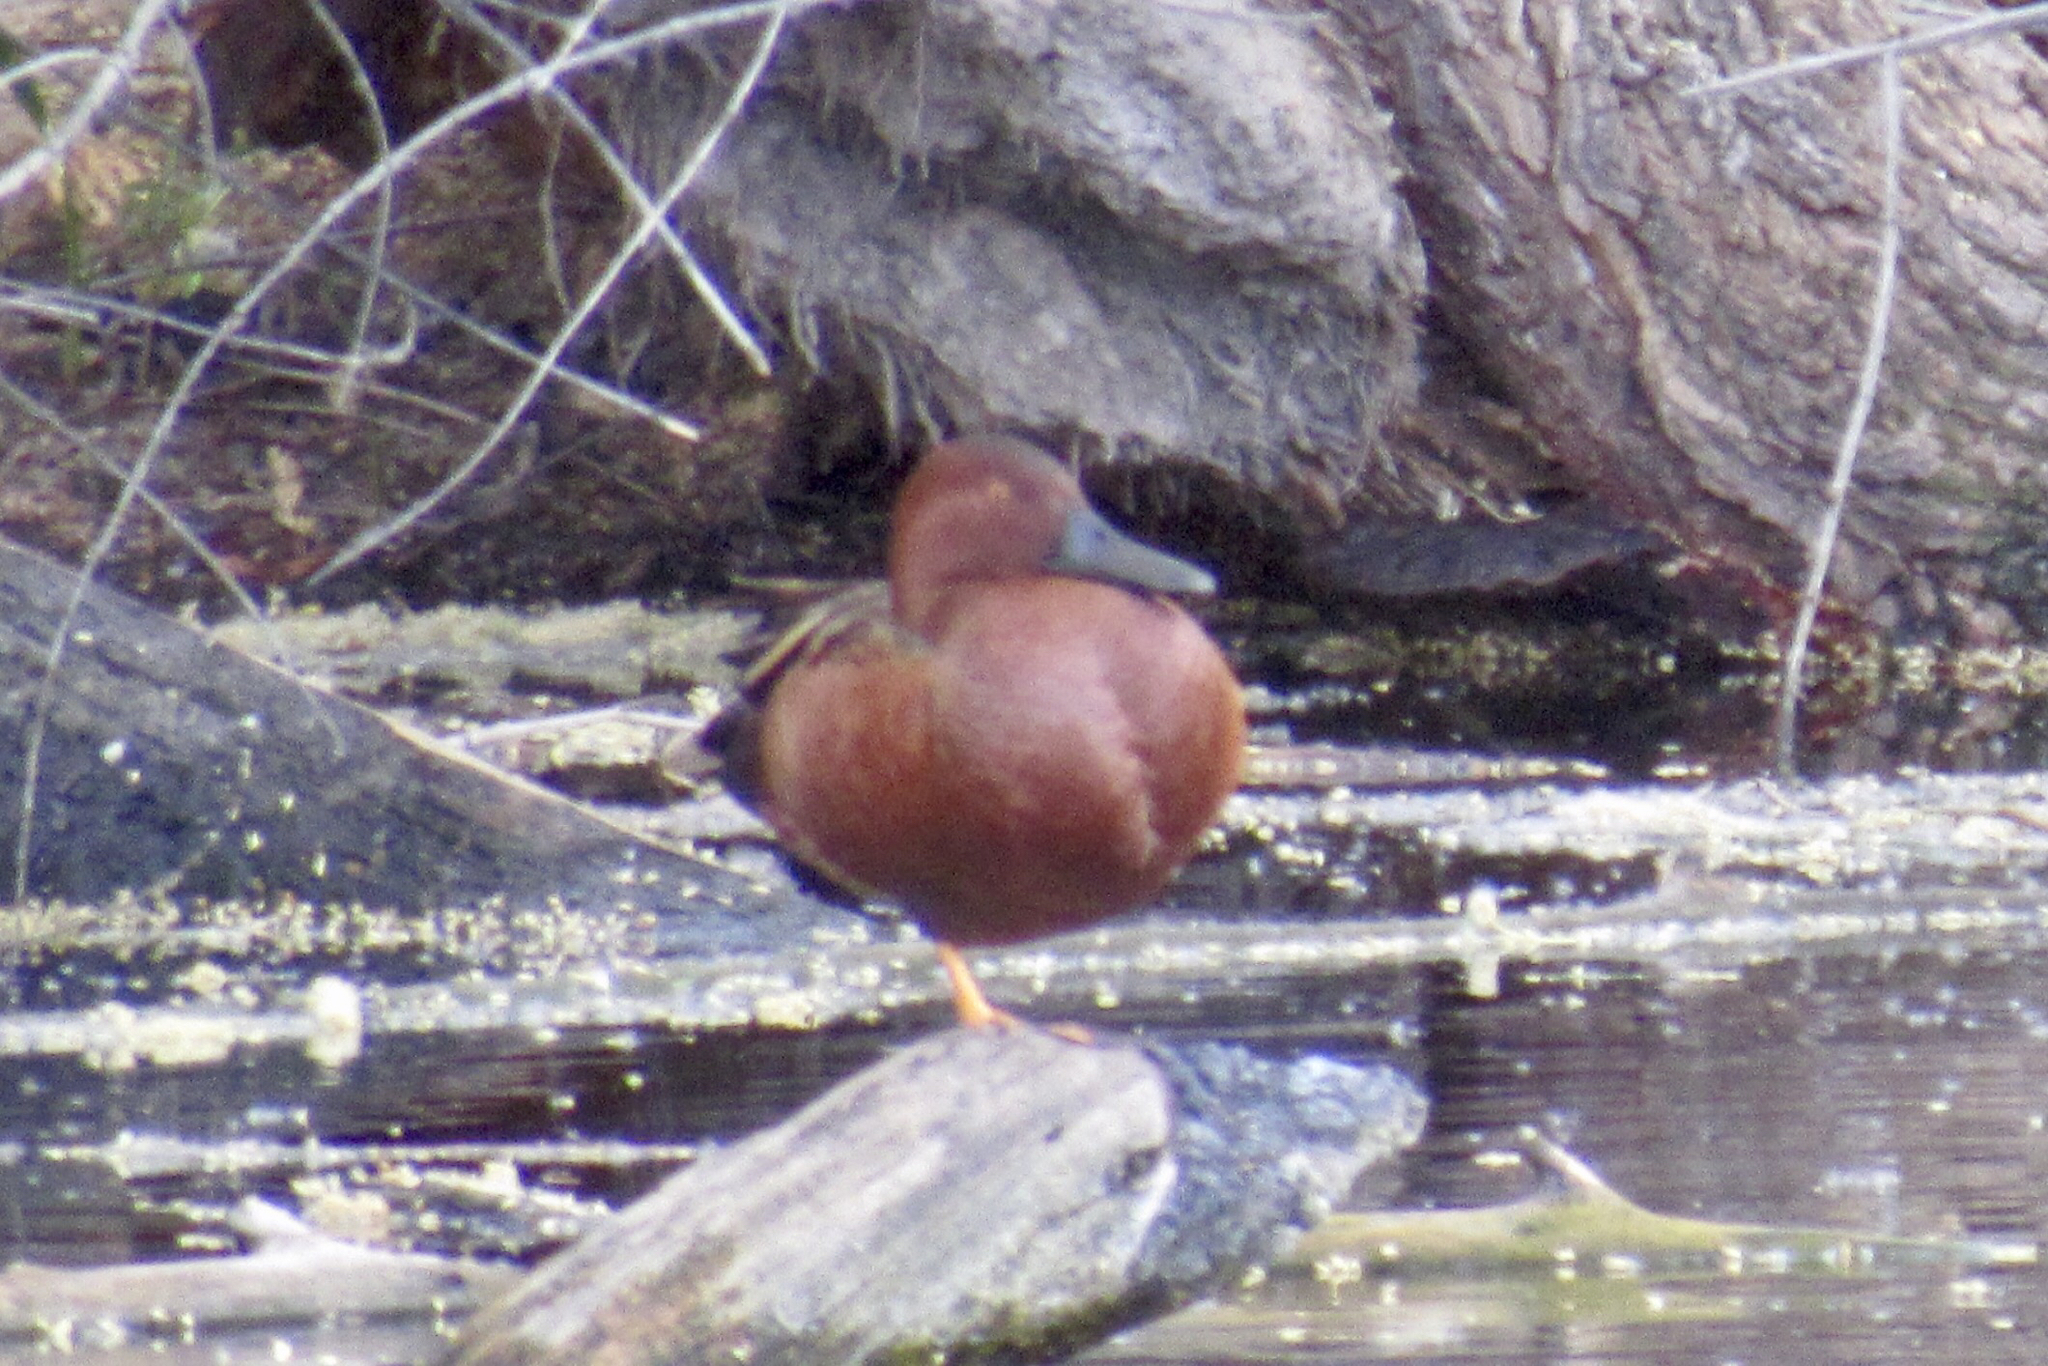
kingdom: Animalia
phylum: Chordata
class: Aves
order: Anseriformes
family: Anatidae
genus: Spatula
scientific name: Spatula cyanoptera
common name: Cinnamon teal
